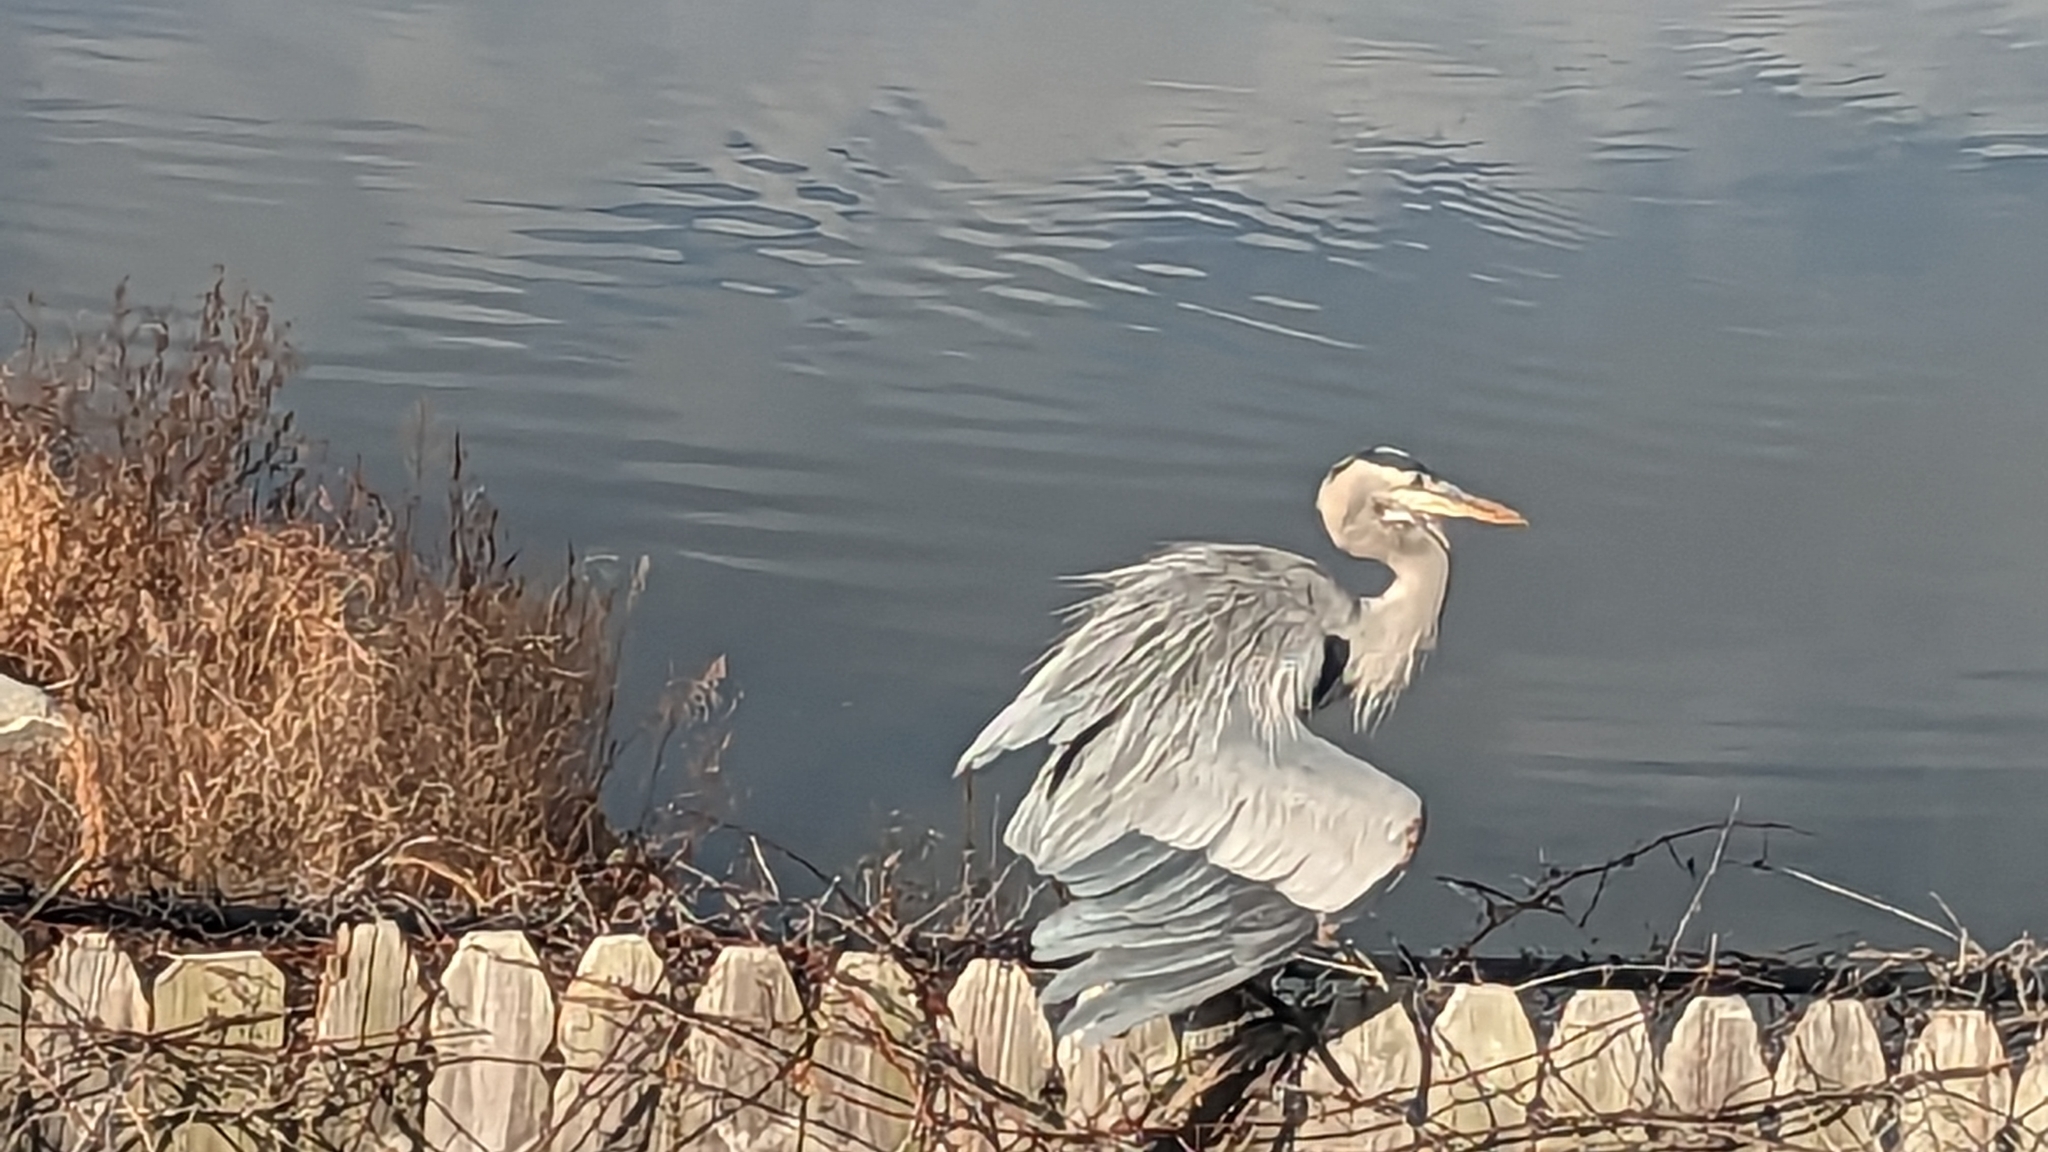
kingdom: Animalia
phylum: Chordata
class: Aves
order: Pelecaniformes
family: Ardeidae
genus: Ardea
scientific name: Ardea herodias
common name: Great blue heron
